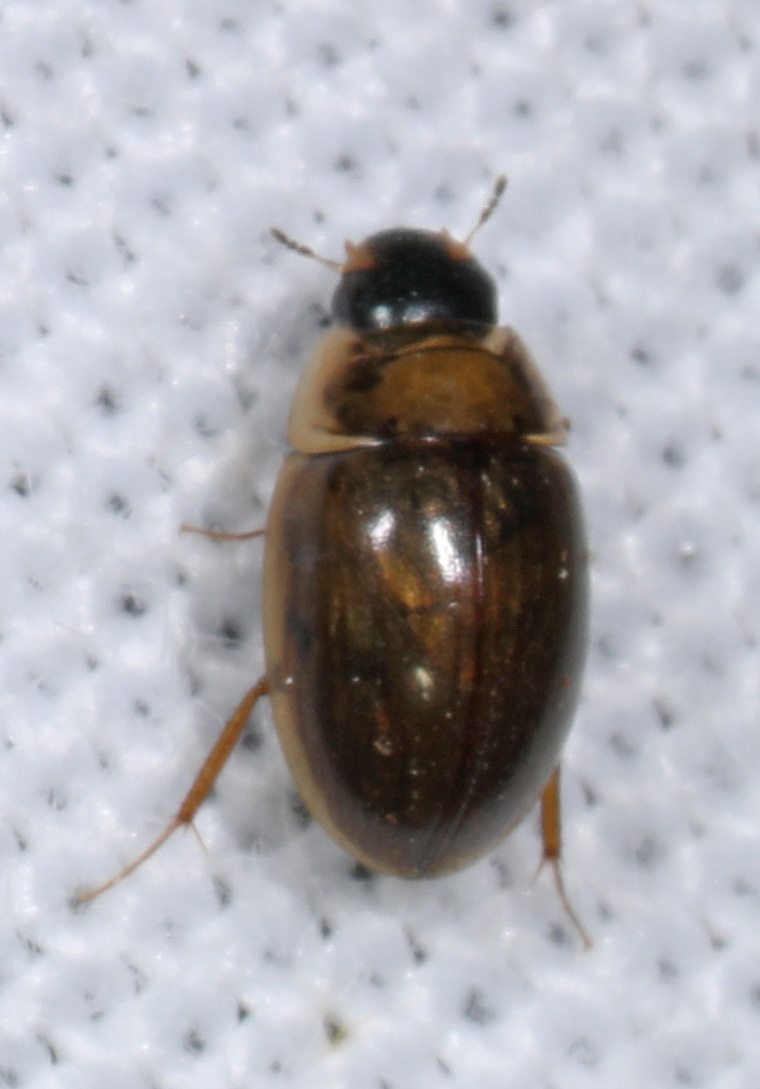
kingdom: Animalia
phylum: Arthropoda
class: Insecta
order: Coleoptera
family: Hydrophilidae
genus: Enochrus
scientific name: Enochrus
